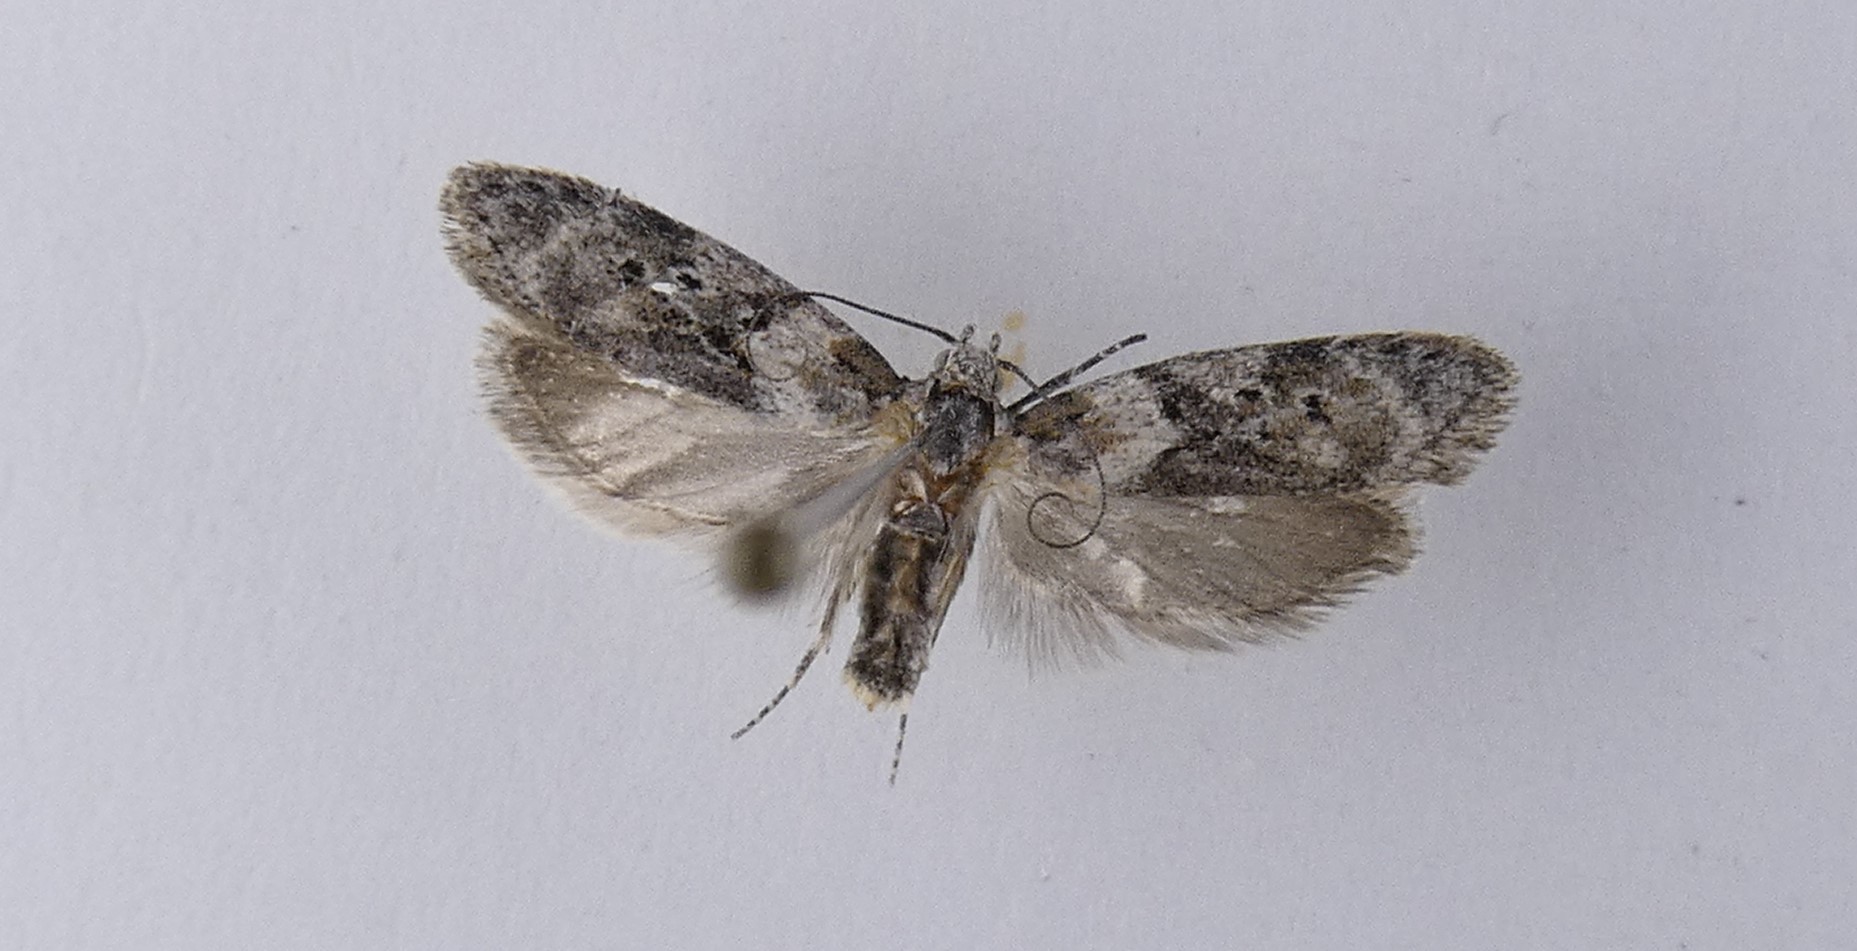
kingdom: Animalia
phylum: Arthropoda
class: Insecta
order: Lepidoptera
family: Oecophoridae
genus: Izatha
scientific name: Izatha convulsella
